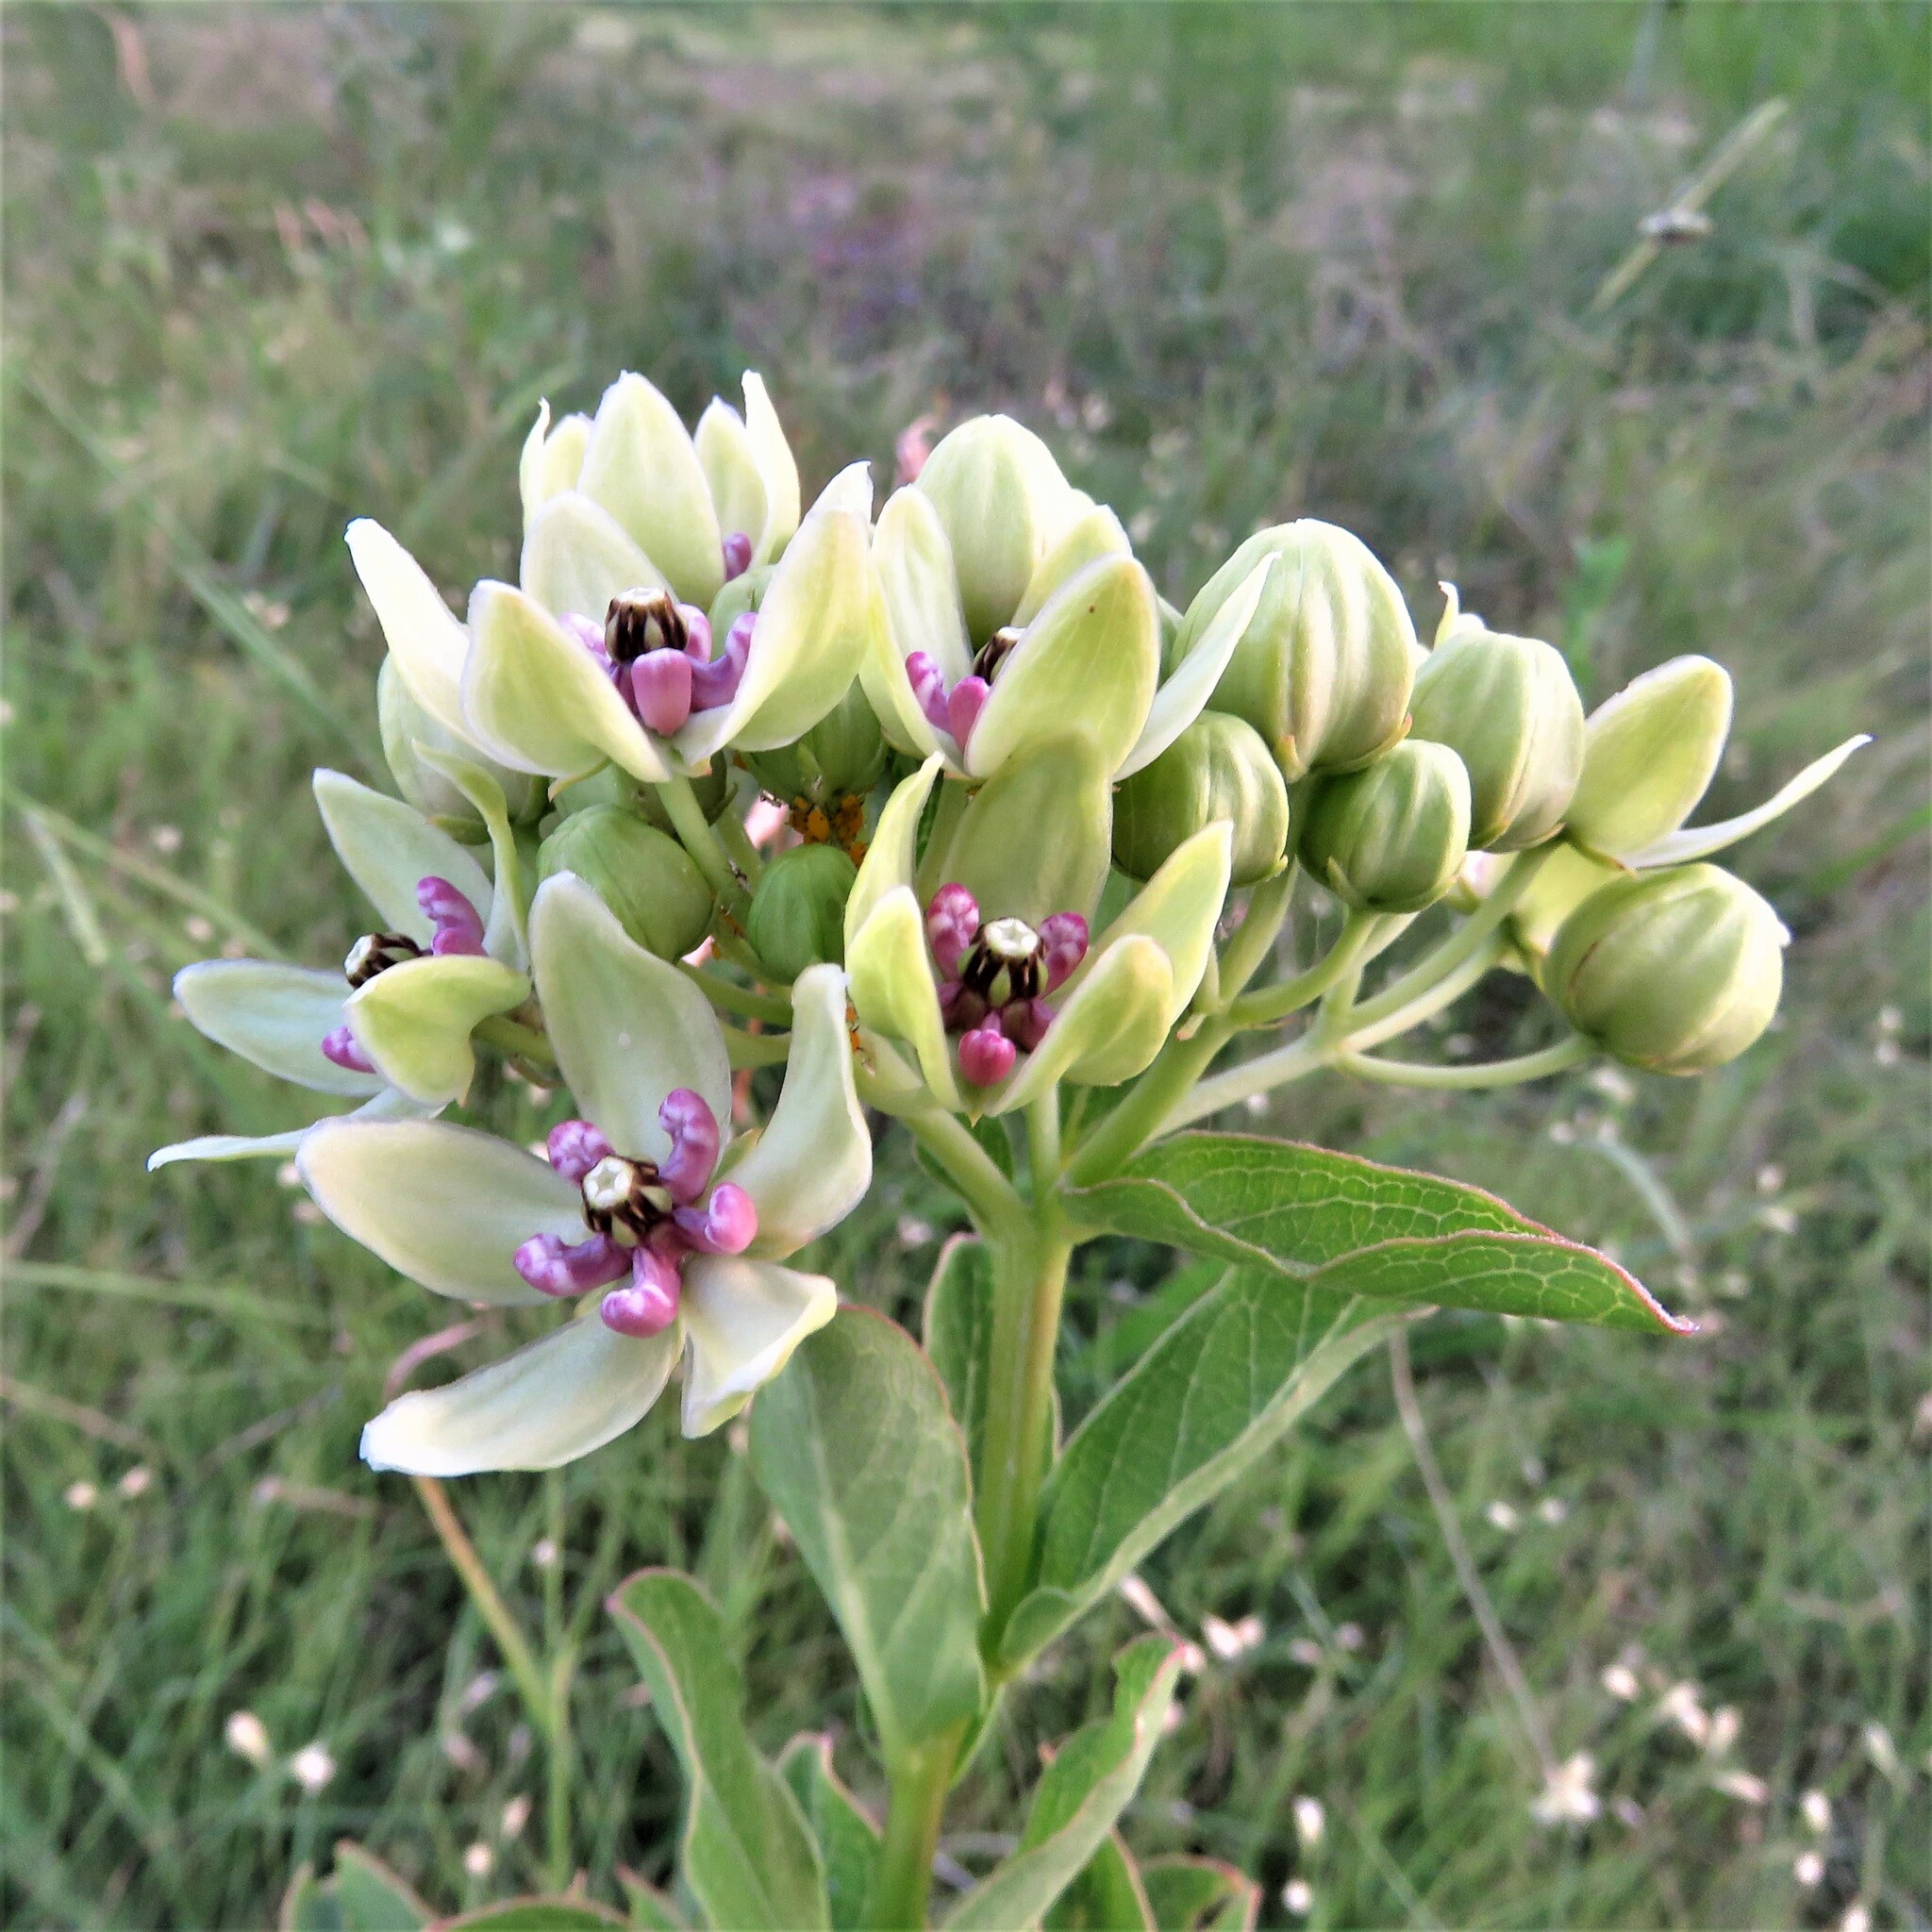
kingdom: Plantae
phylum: Tracheophyta
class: Magnoliopsida
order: Gentianales
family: Apocynaceae
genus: Asclepias
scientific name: Asclepias viridis
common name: Antelope-horns
